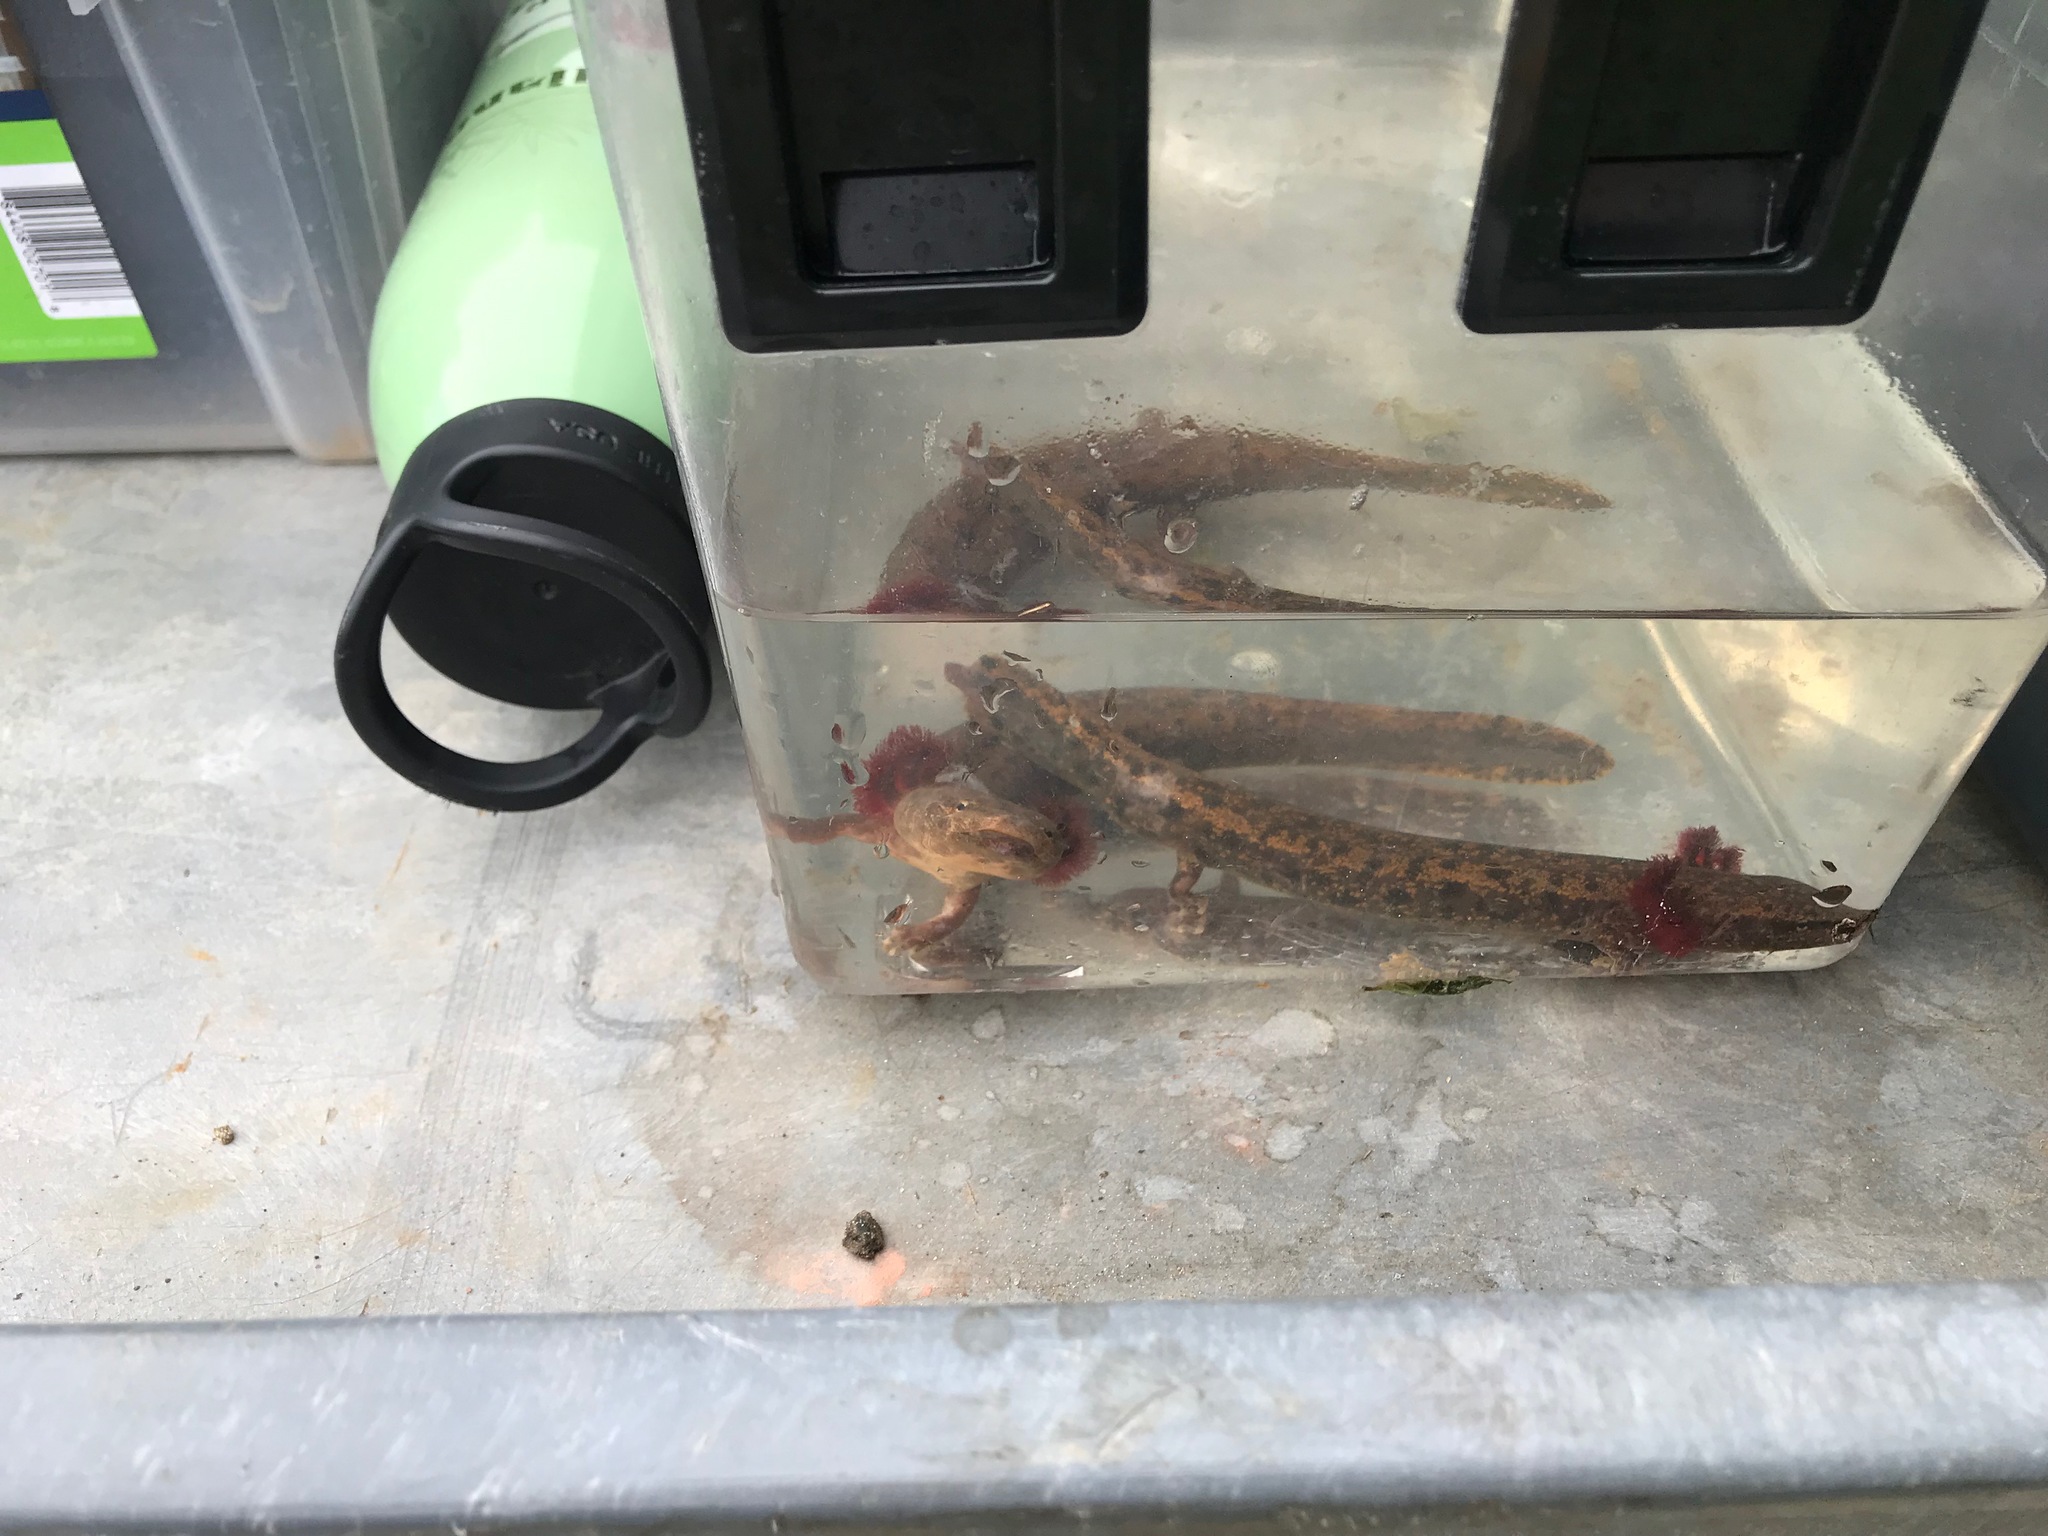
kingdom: Animalia
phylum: Chordata
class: Amphibia
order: Caudata
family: Proteidae
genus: Necturus
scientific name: Necturus louisianensis
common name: Red river mudpuppy
